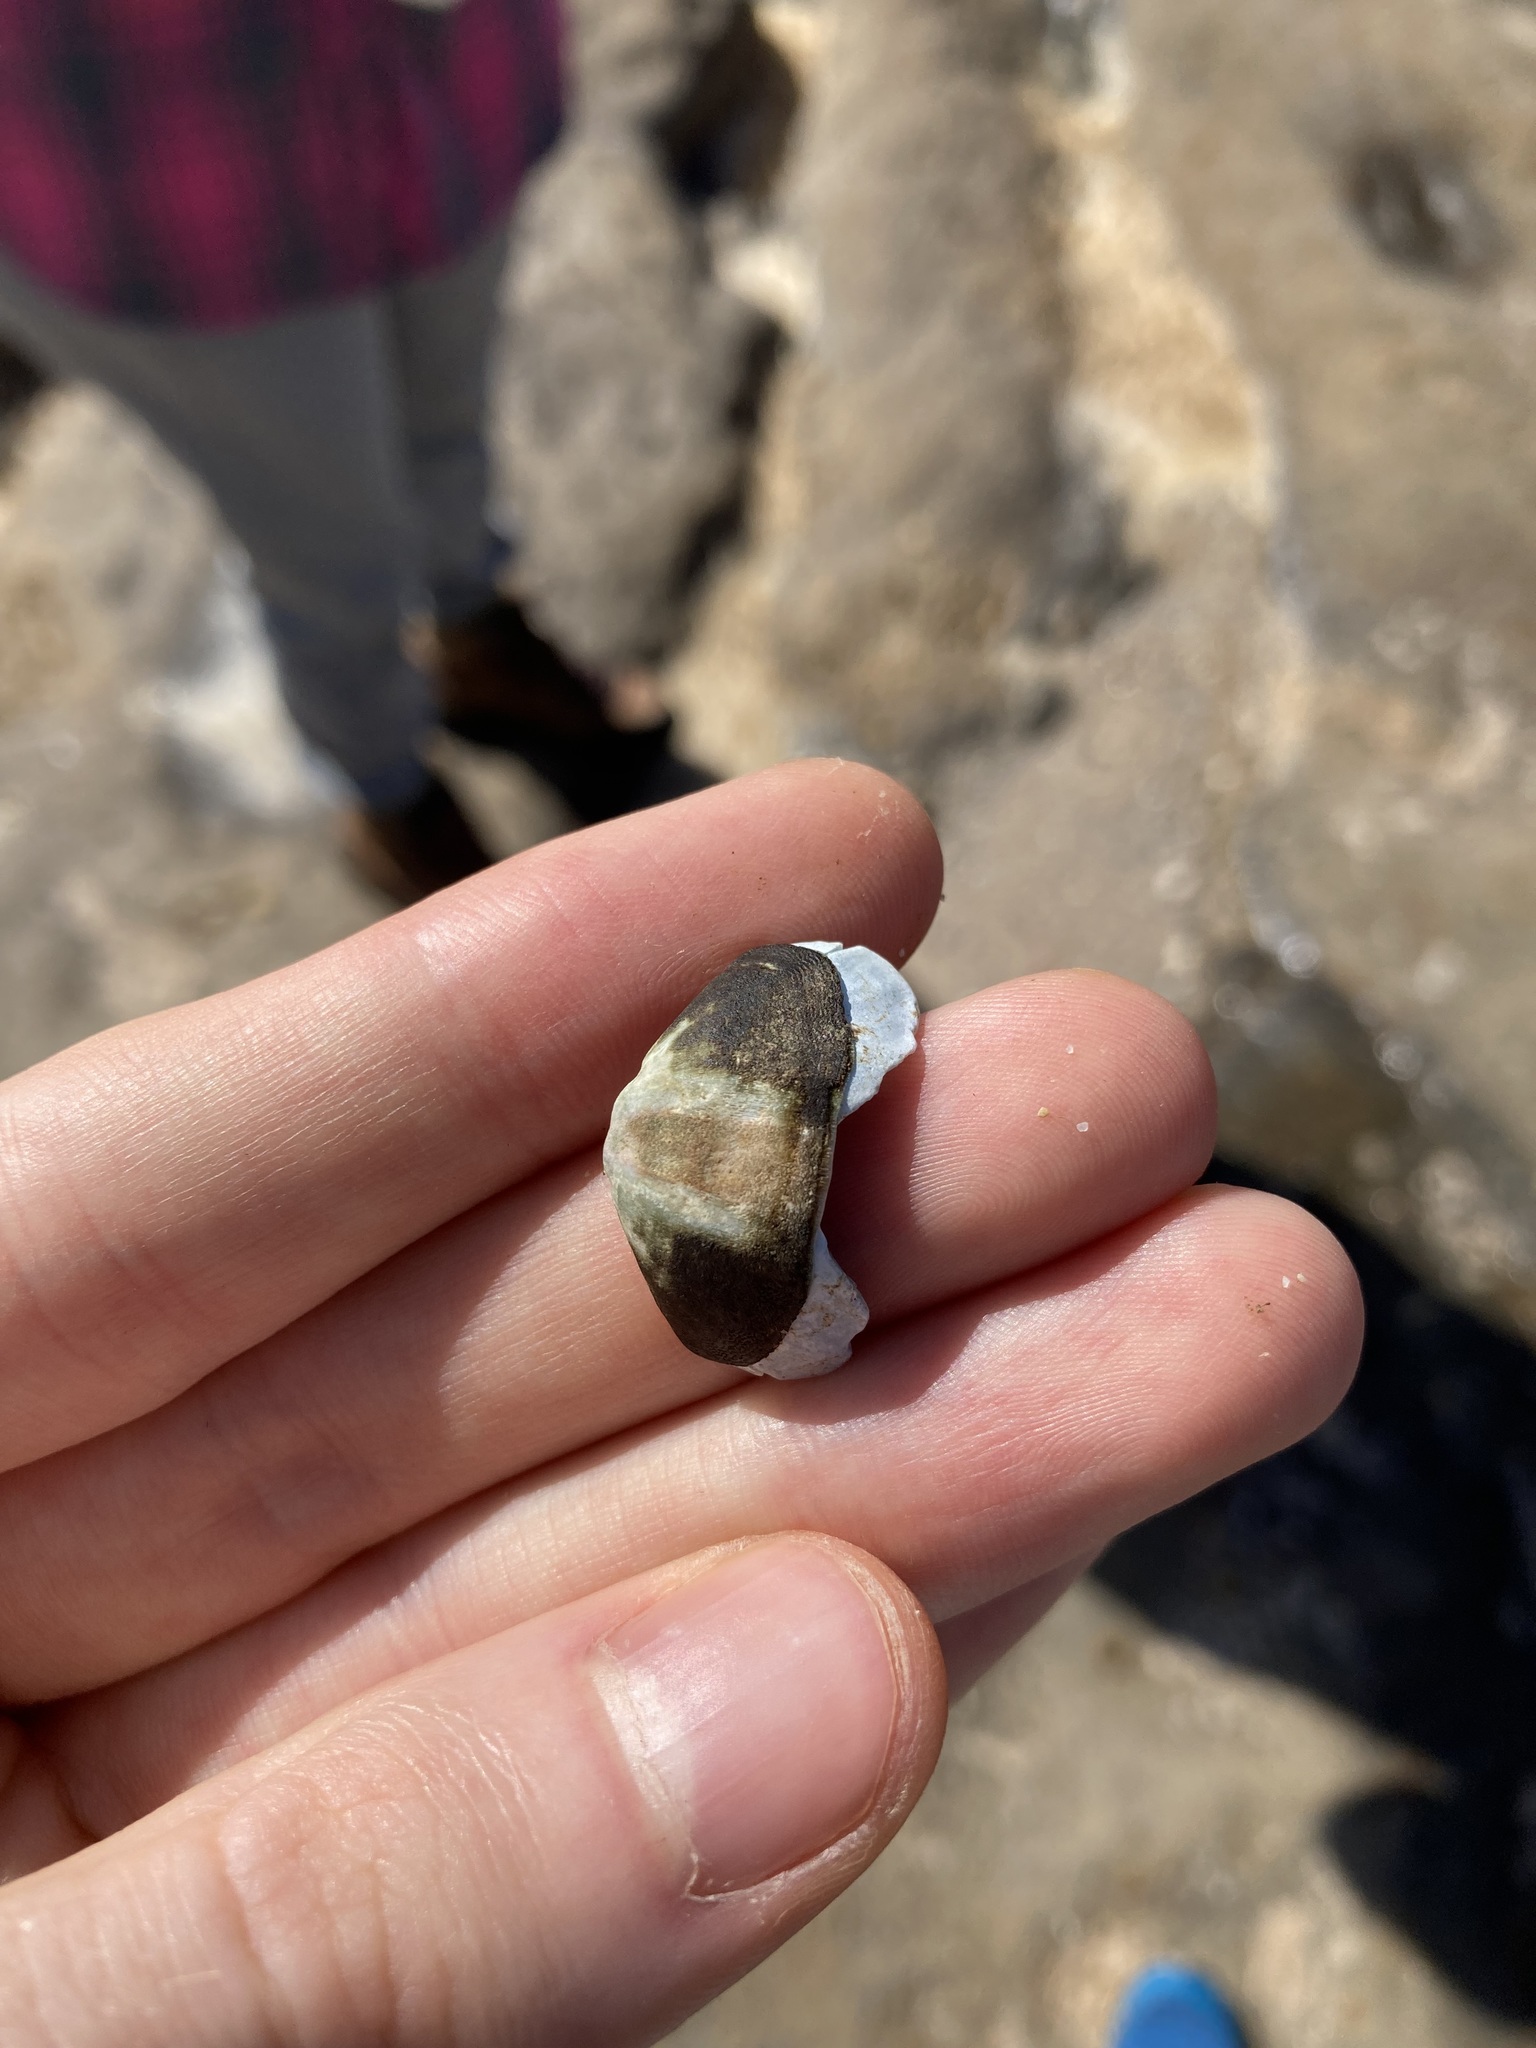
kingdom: Animalia
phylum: Mollusca
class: Polyplacophora
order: Chitonida
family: Mopaliidae
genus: Plaxiphora
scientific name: Plaxiphora albida
